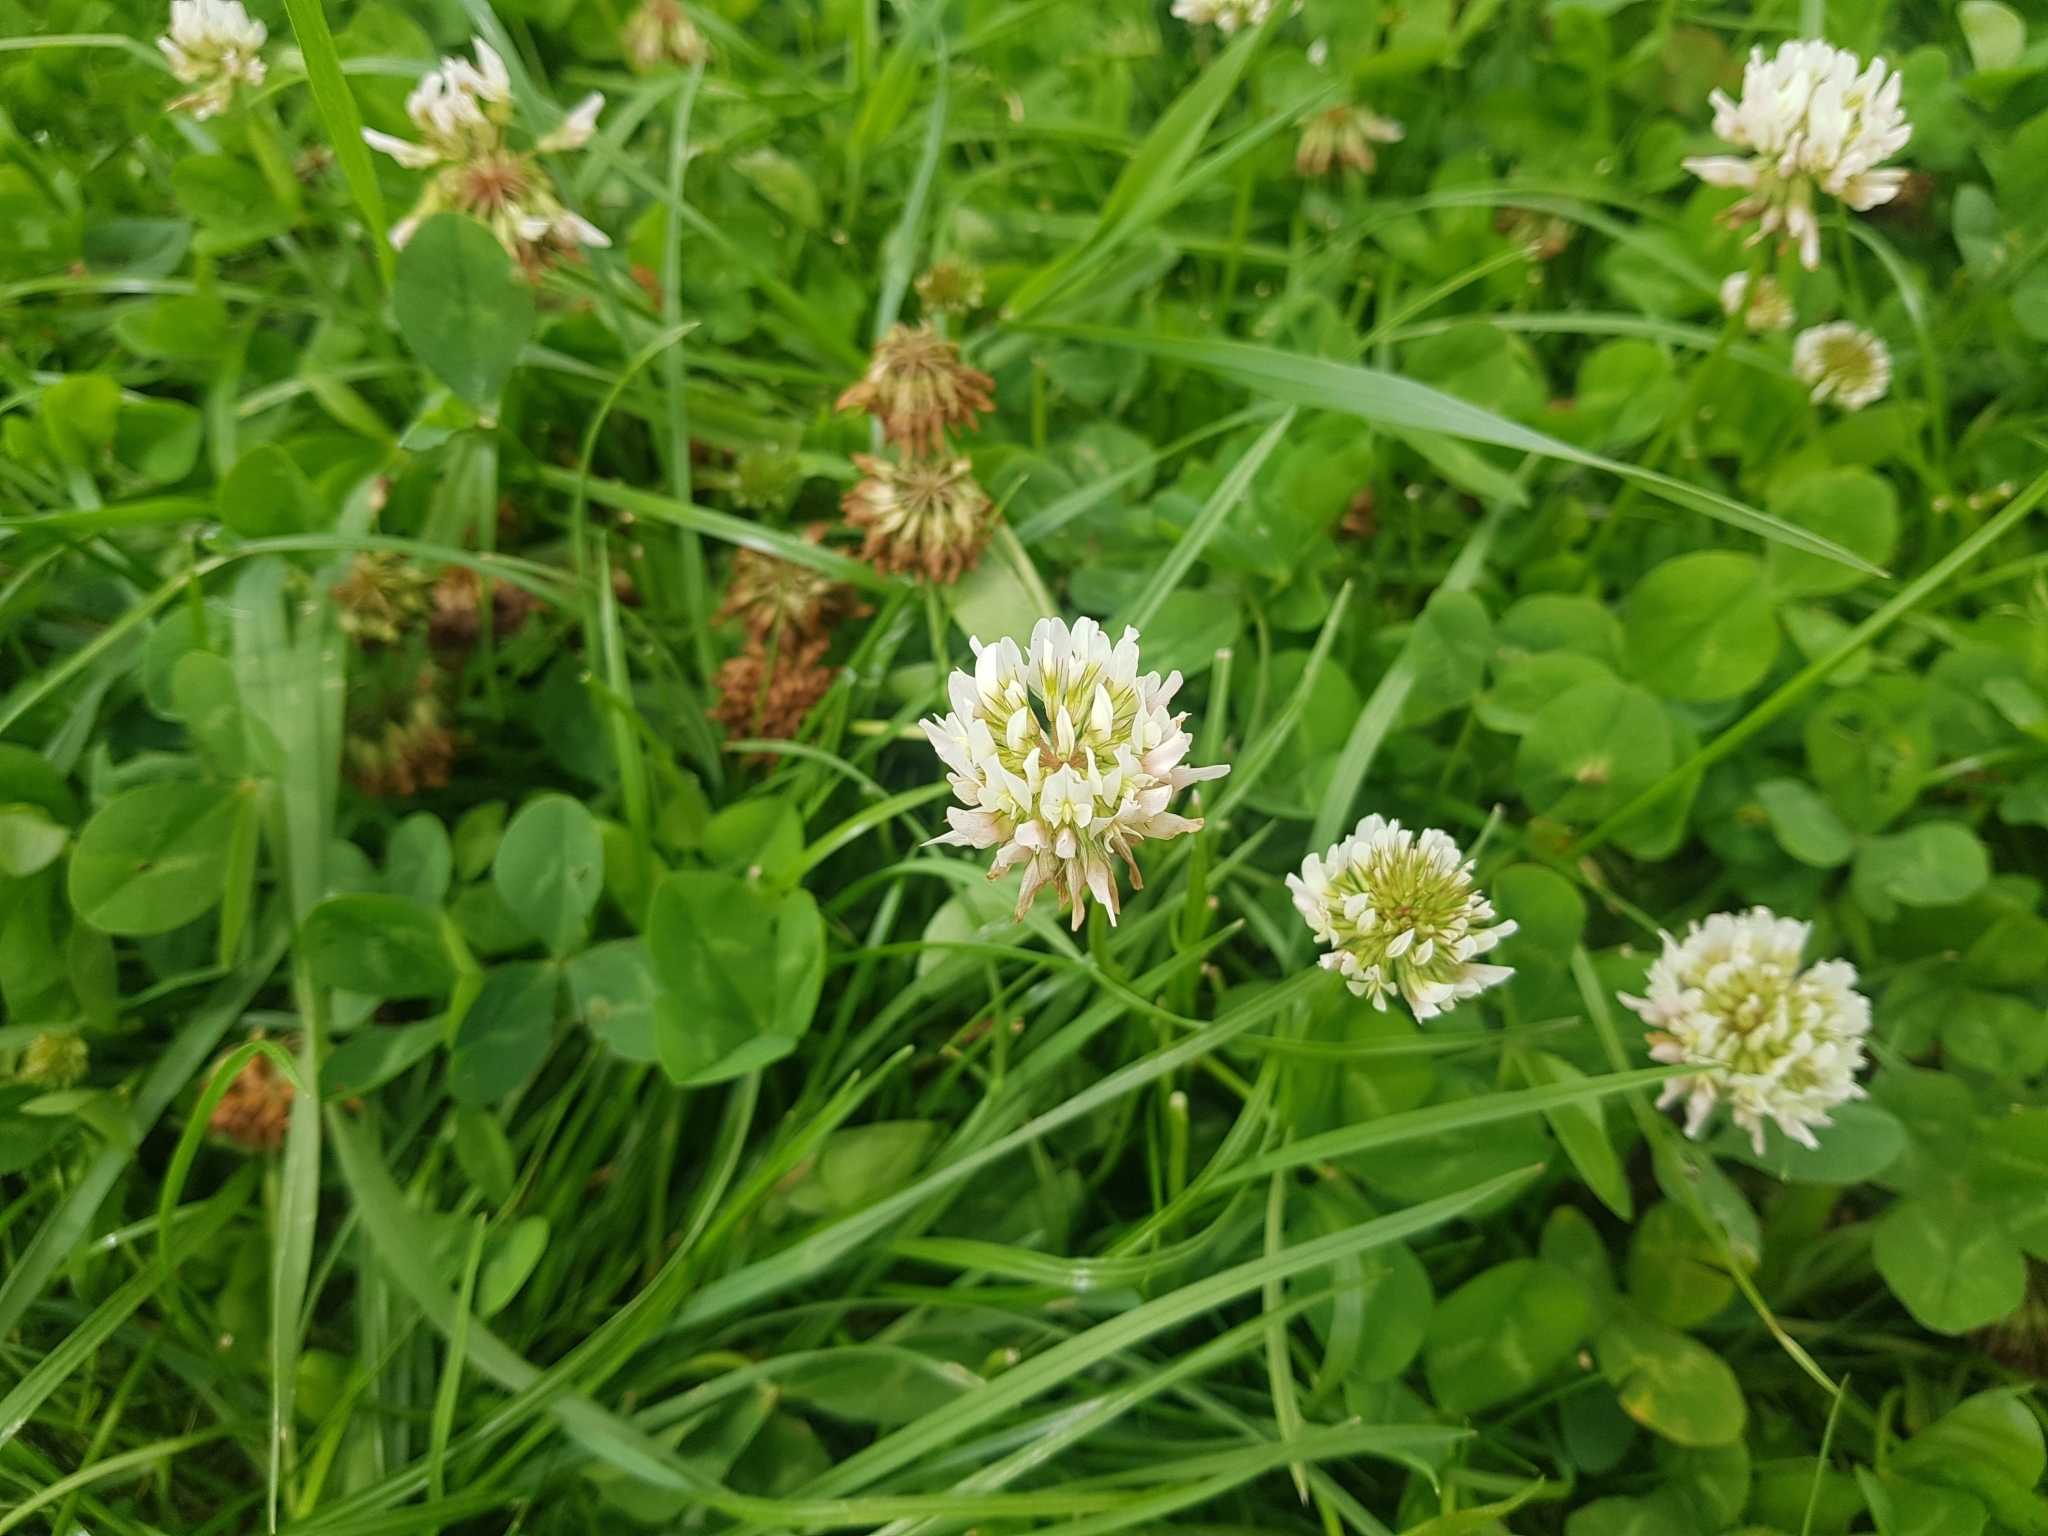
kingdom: Plantae
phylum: Tracheophyta
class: Magnoliopsida
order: Fabales
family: Fabaceae
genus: Trifolium
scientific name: Trifolium repens
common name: White clover
